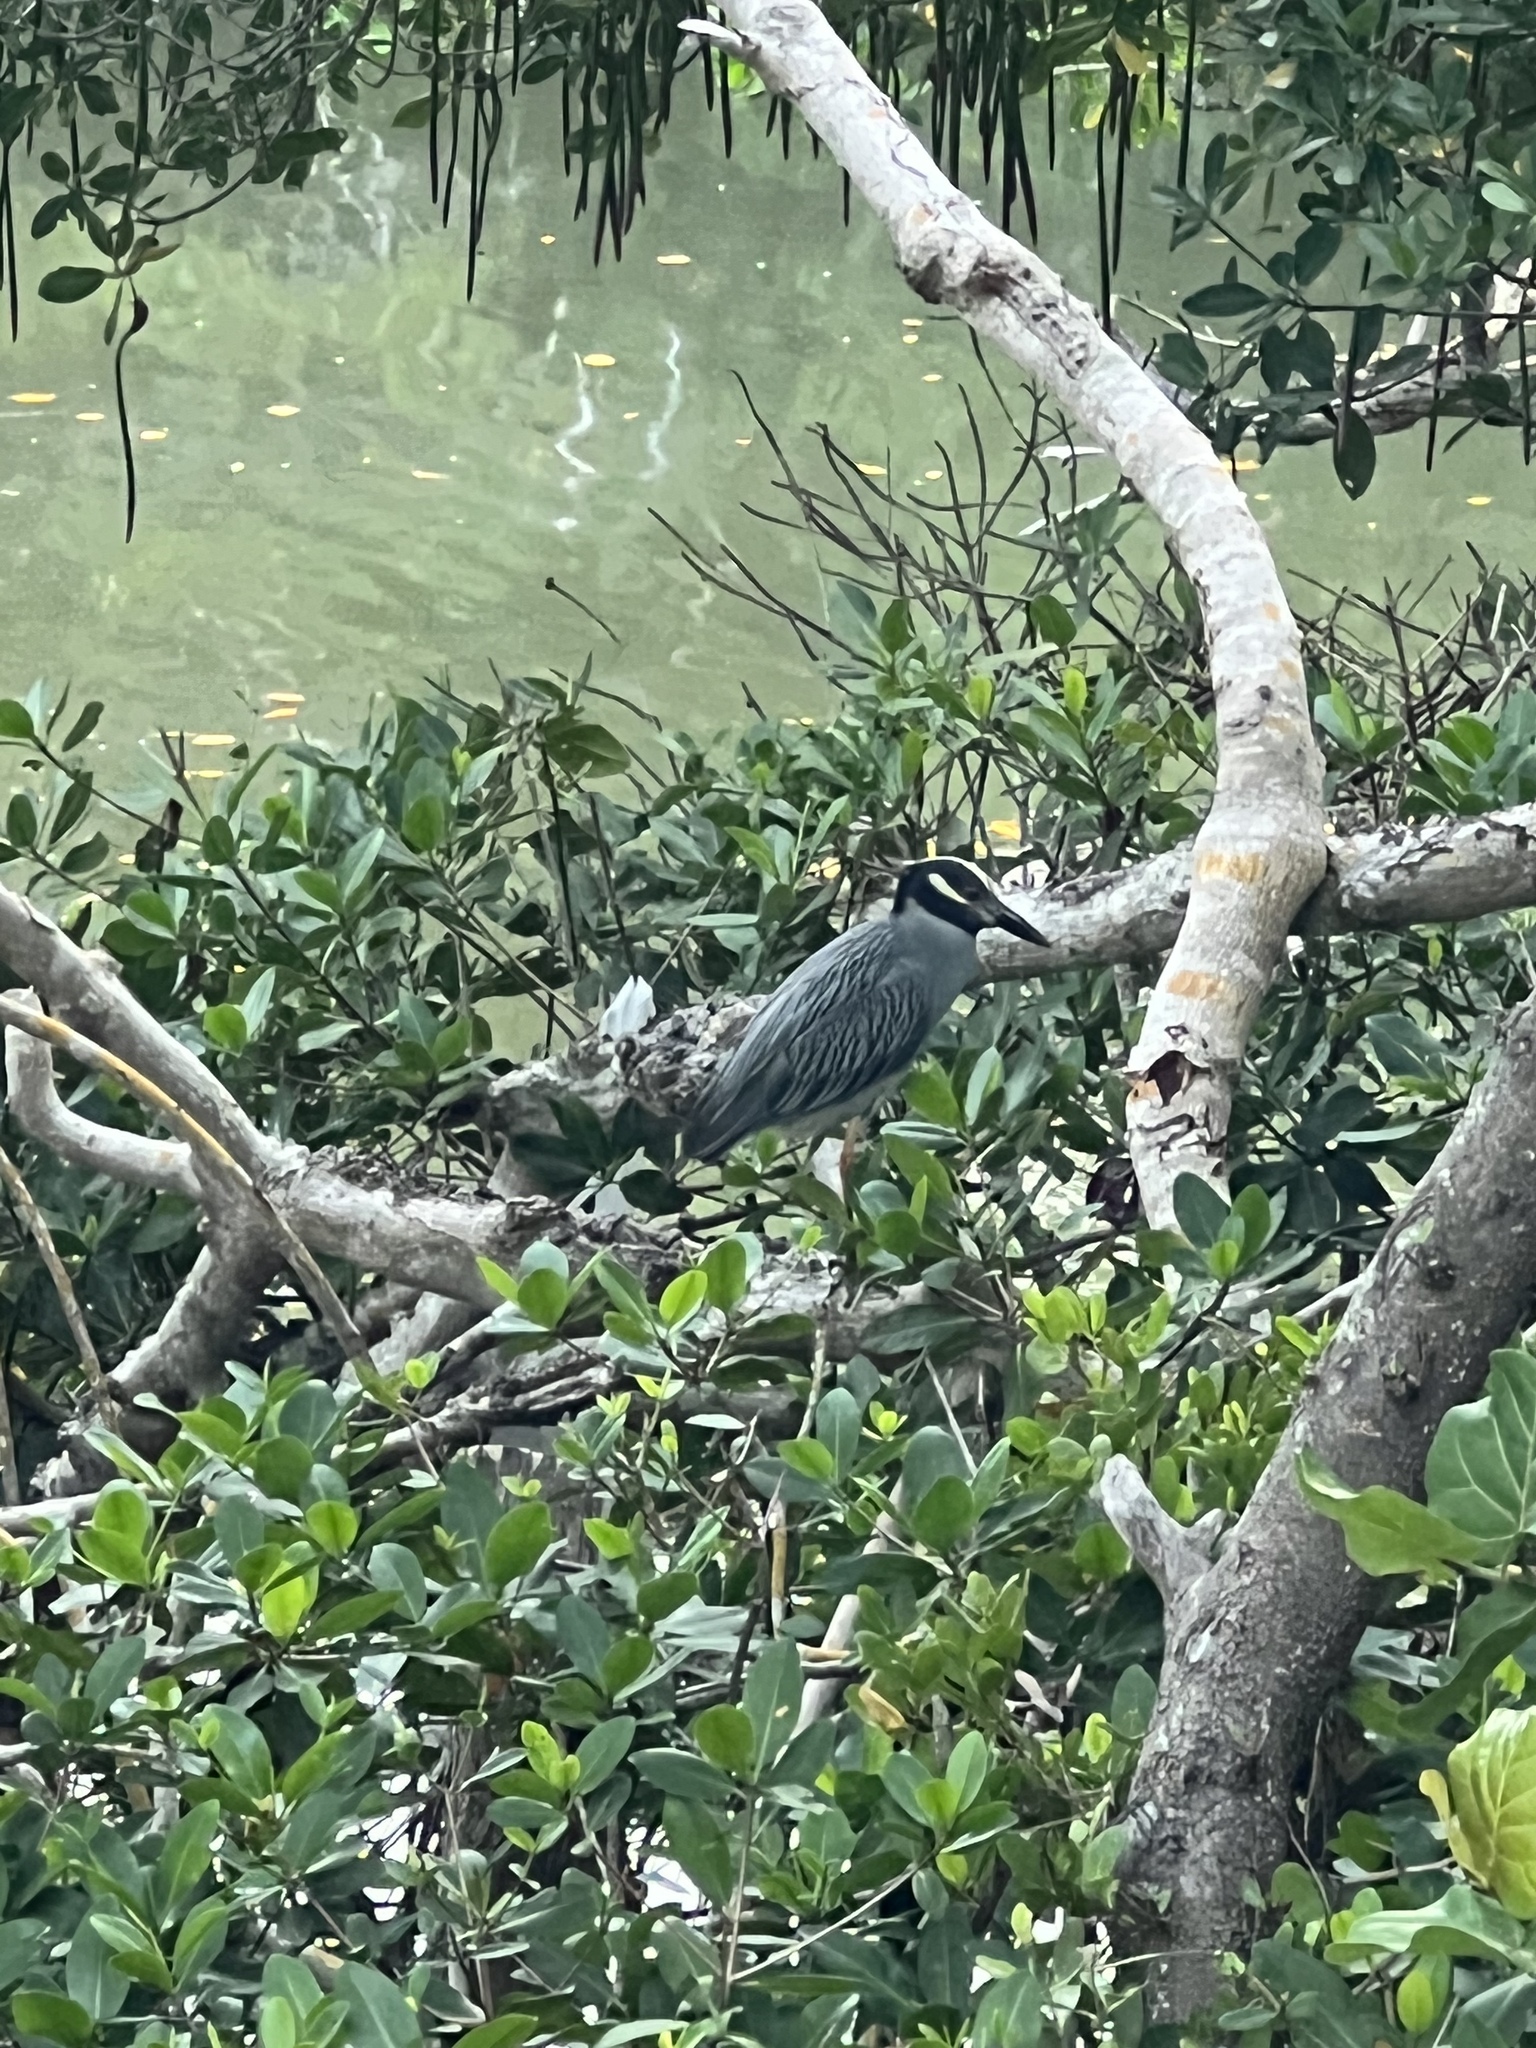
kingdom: Animalia
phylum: Chordata
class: Aves
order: Pelecaniformes
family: Ardeidae
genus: Nyctanassa
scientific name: Nyctanassa violacea
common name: Yellow-crowned night heron
